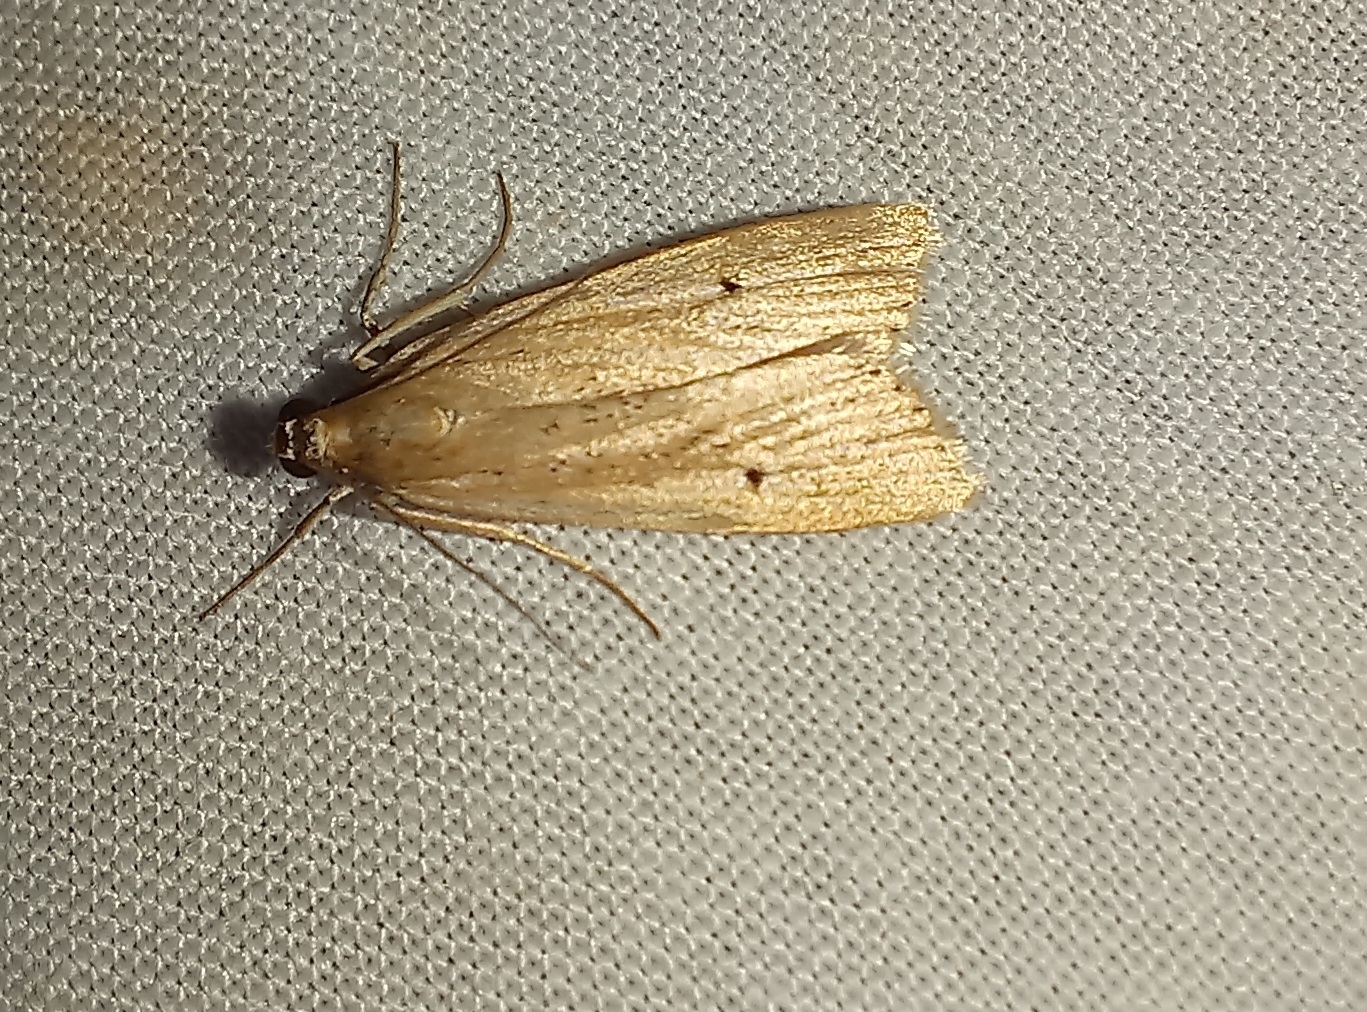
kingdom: Animalia
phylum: Arthropoda
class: Insecta
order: Lepidoptera
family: Crambidae
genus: Eudonia
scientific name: Eudonia sabulosella
